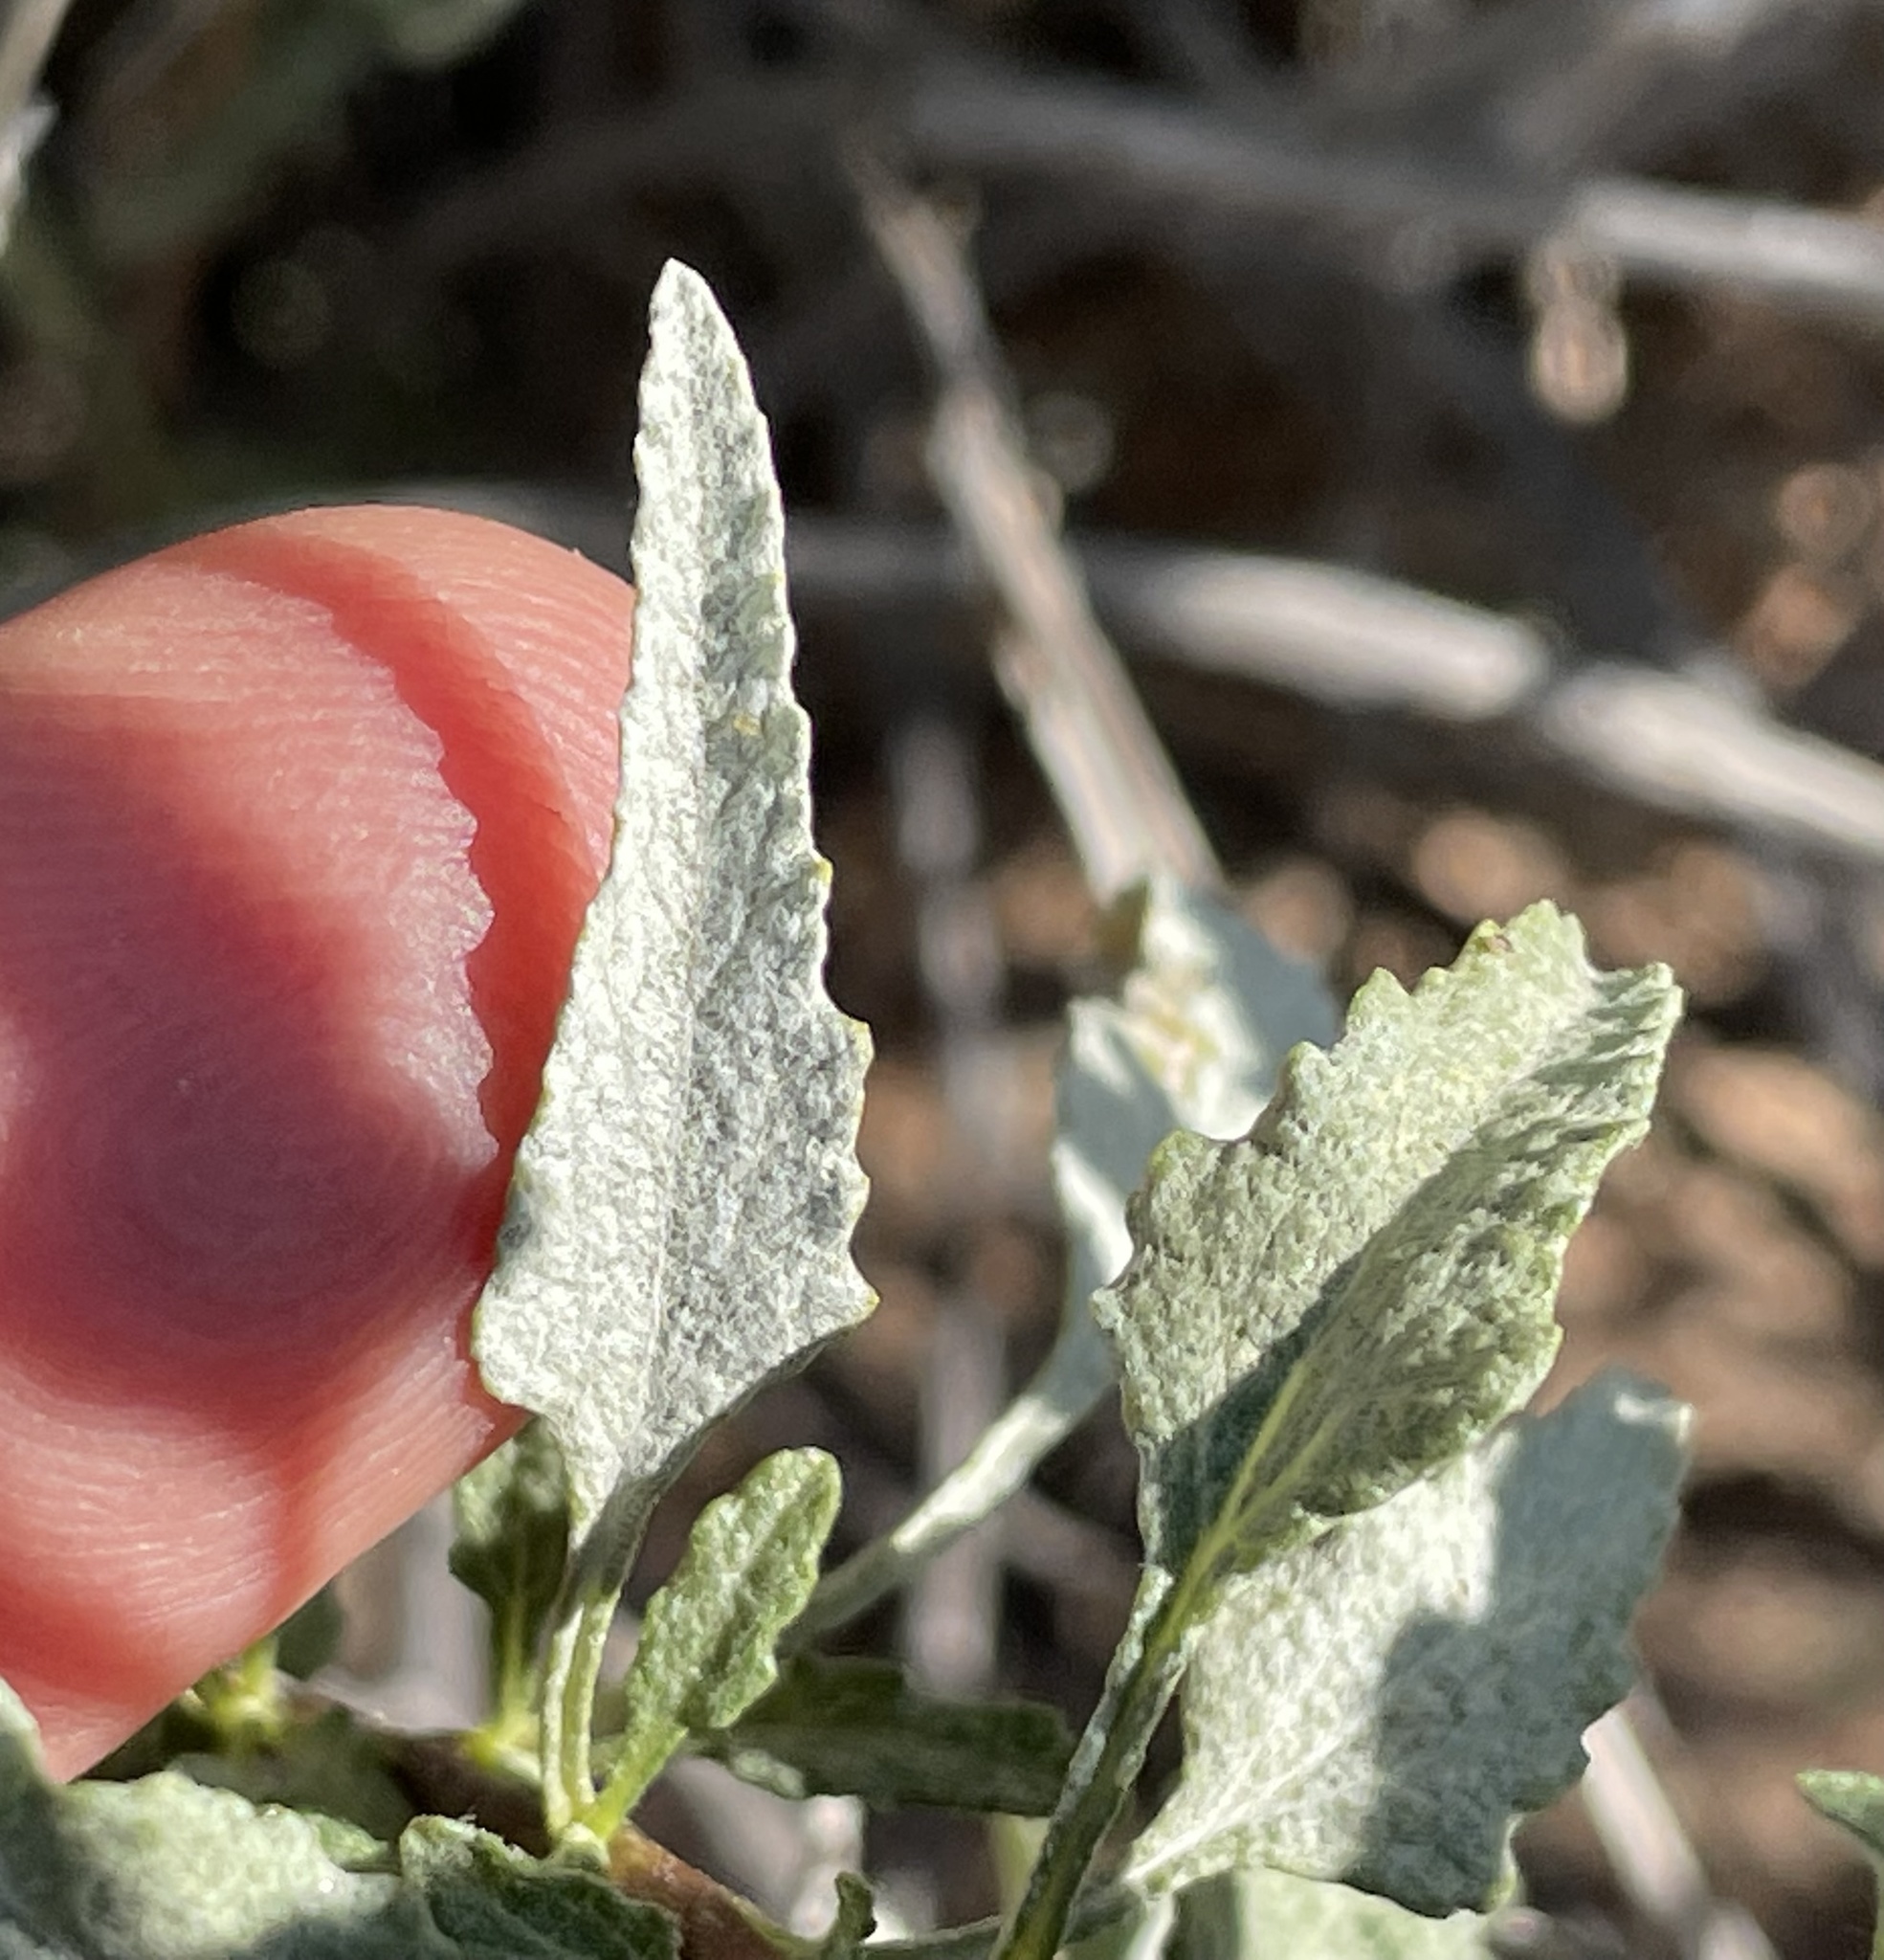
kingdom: Plantae
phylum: Tracheophyta
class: Magnoliopsida
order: Asterales
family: Asteraceae
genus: Ambrosia
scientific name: Ambrosia deltoidea
